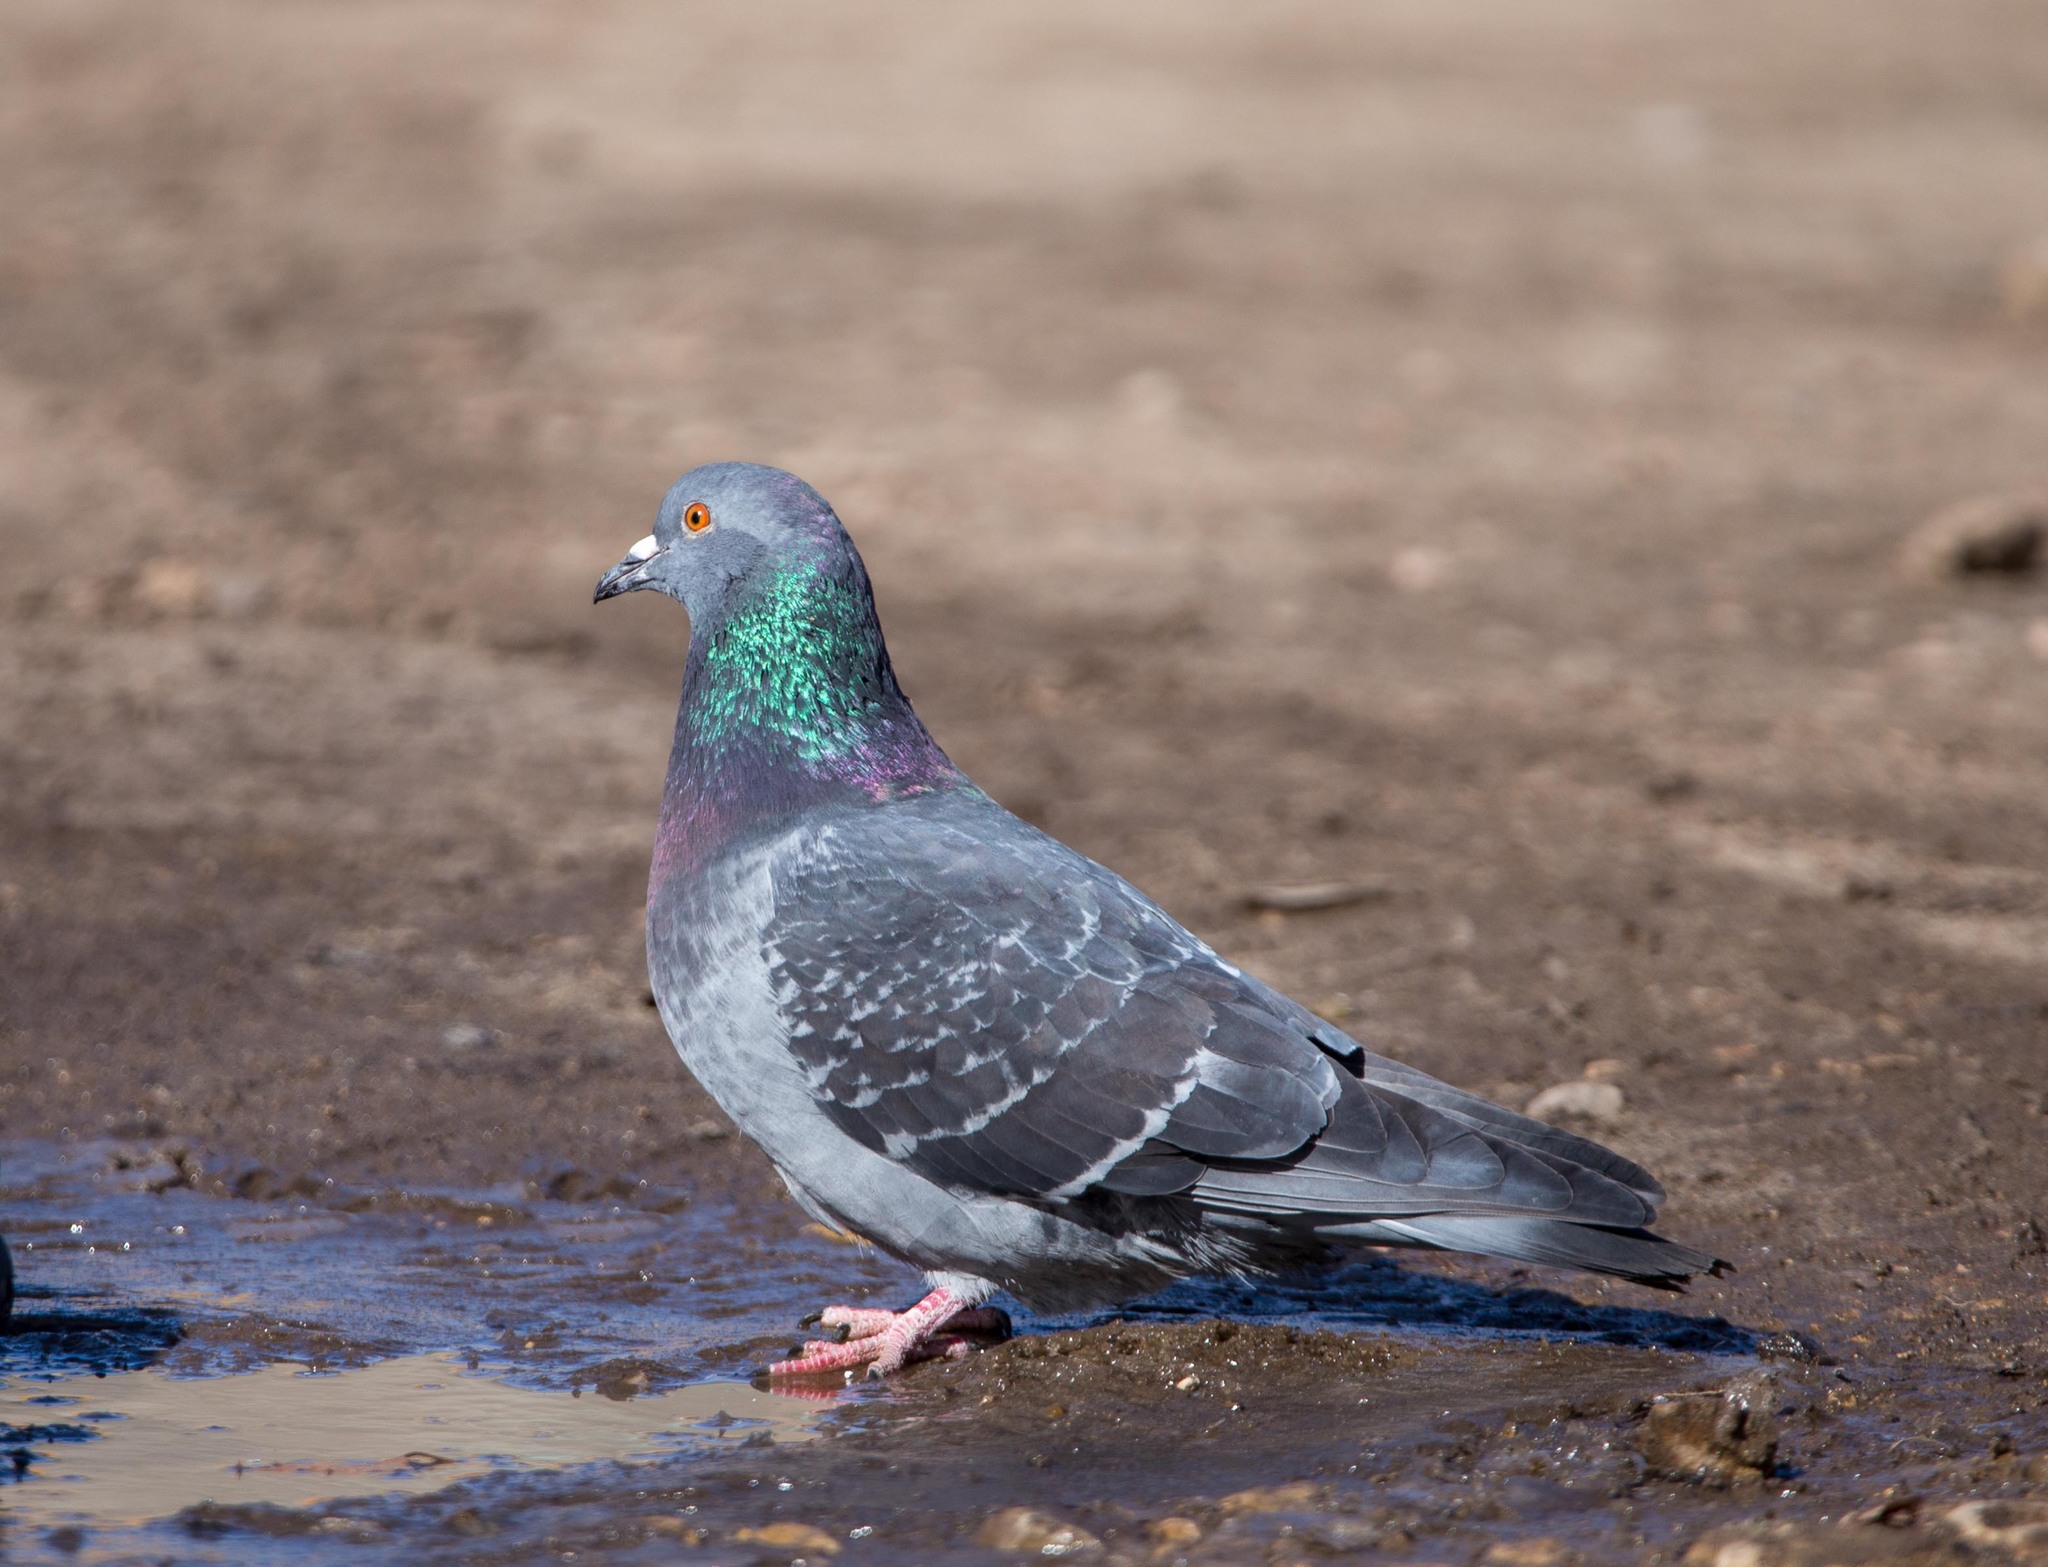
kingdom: Animalia
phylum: Chordata
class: Aves
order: Columbiformes
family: Columbidae
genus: Columba
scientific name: Columba livia
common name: Rock pigeon
